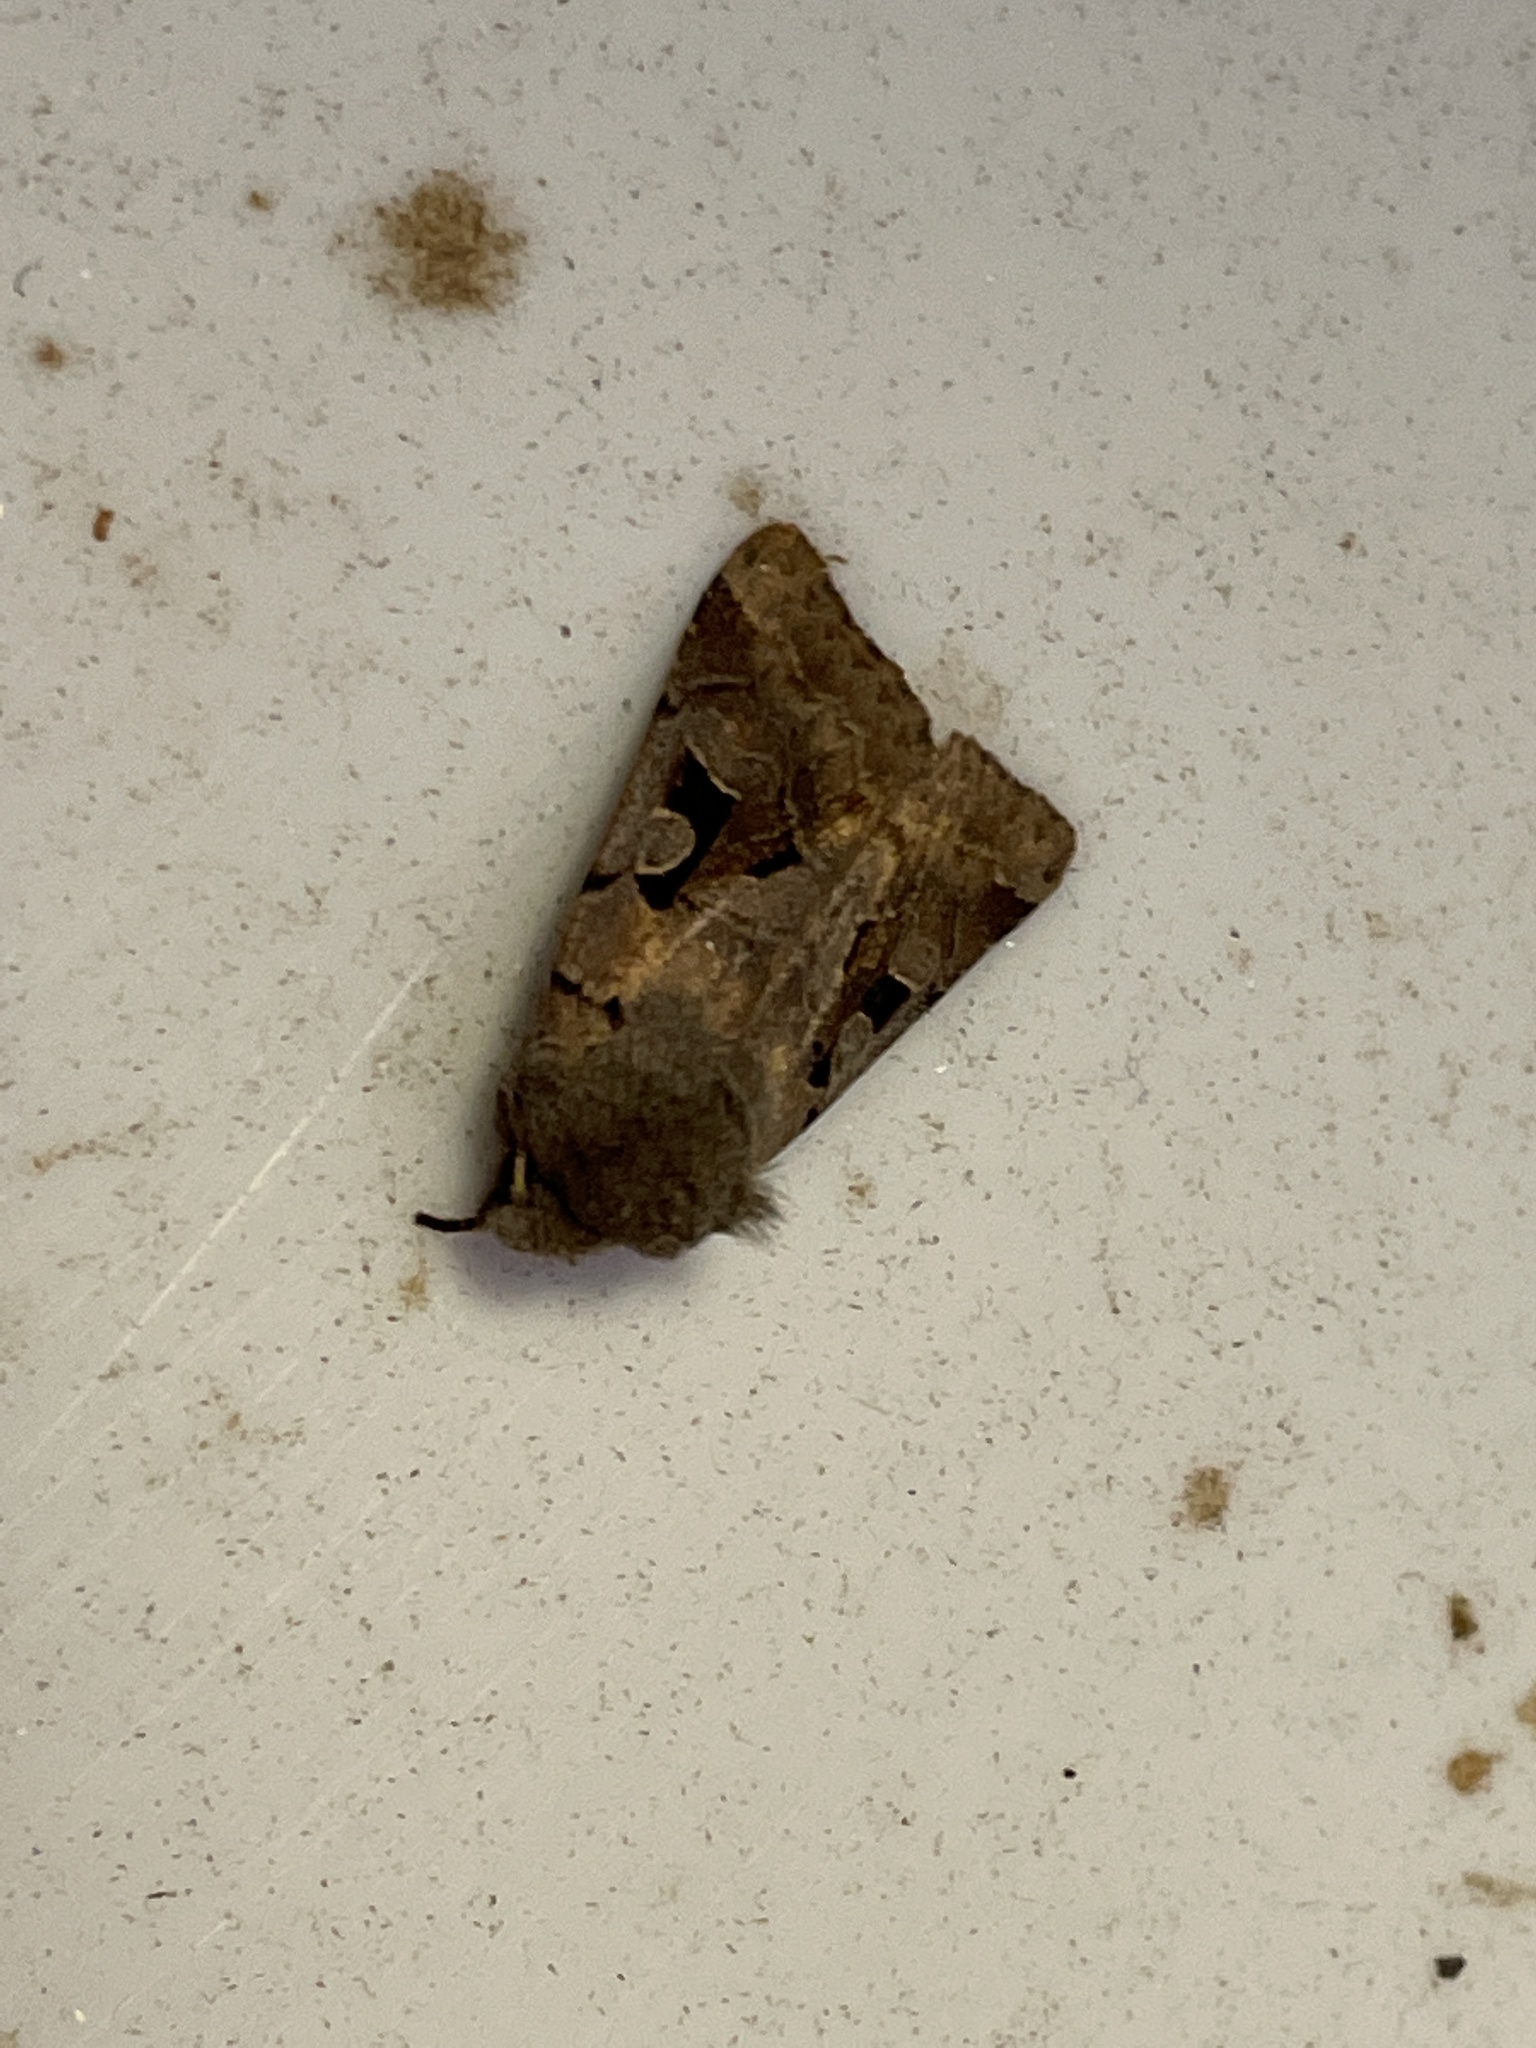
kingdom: Animalia
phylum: Arthropoda
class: Insecta
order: Lepidoptera
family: Noctuidae
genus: Orthosia
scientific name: Orthosia gothica
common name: Hebrew character
